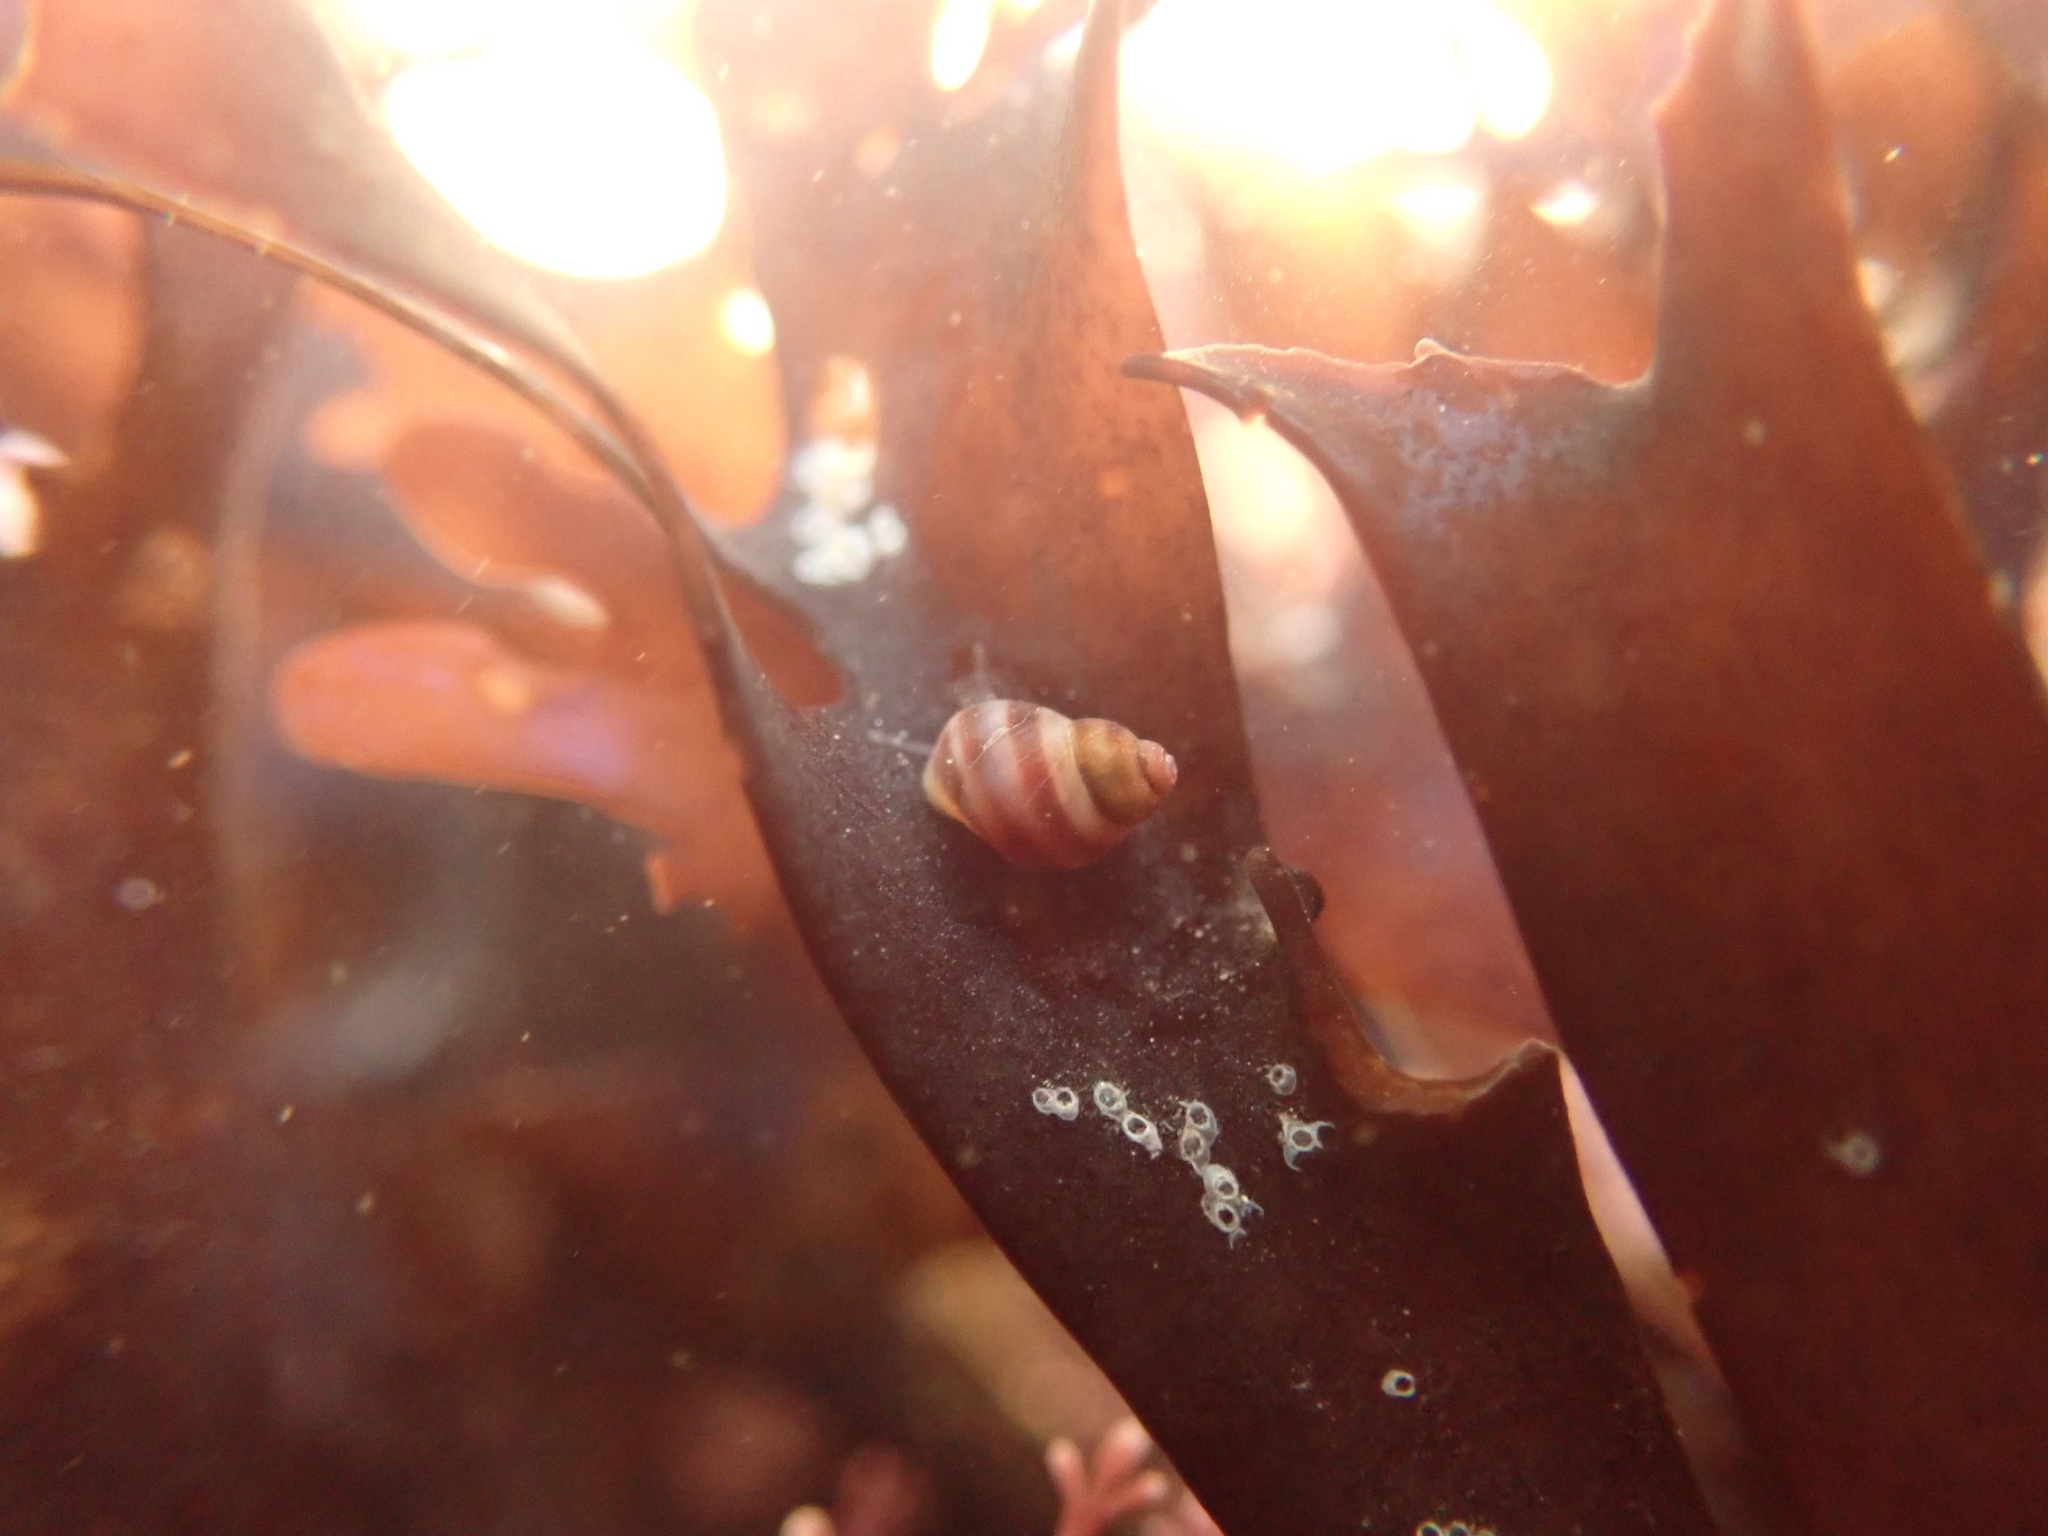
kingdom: Animalia
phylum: Mollusca
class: Gastropoda
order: Littorinimorpha
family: Littorinidae
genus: Lacuna
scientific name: Lacuna vincta
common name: Banded chink shell
